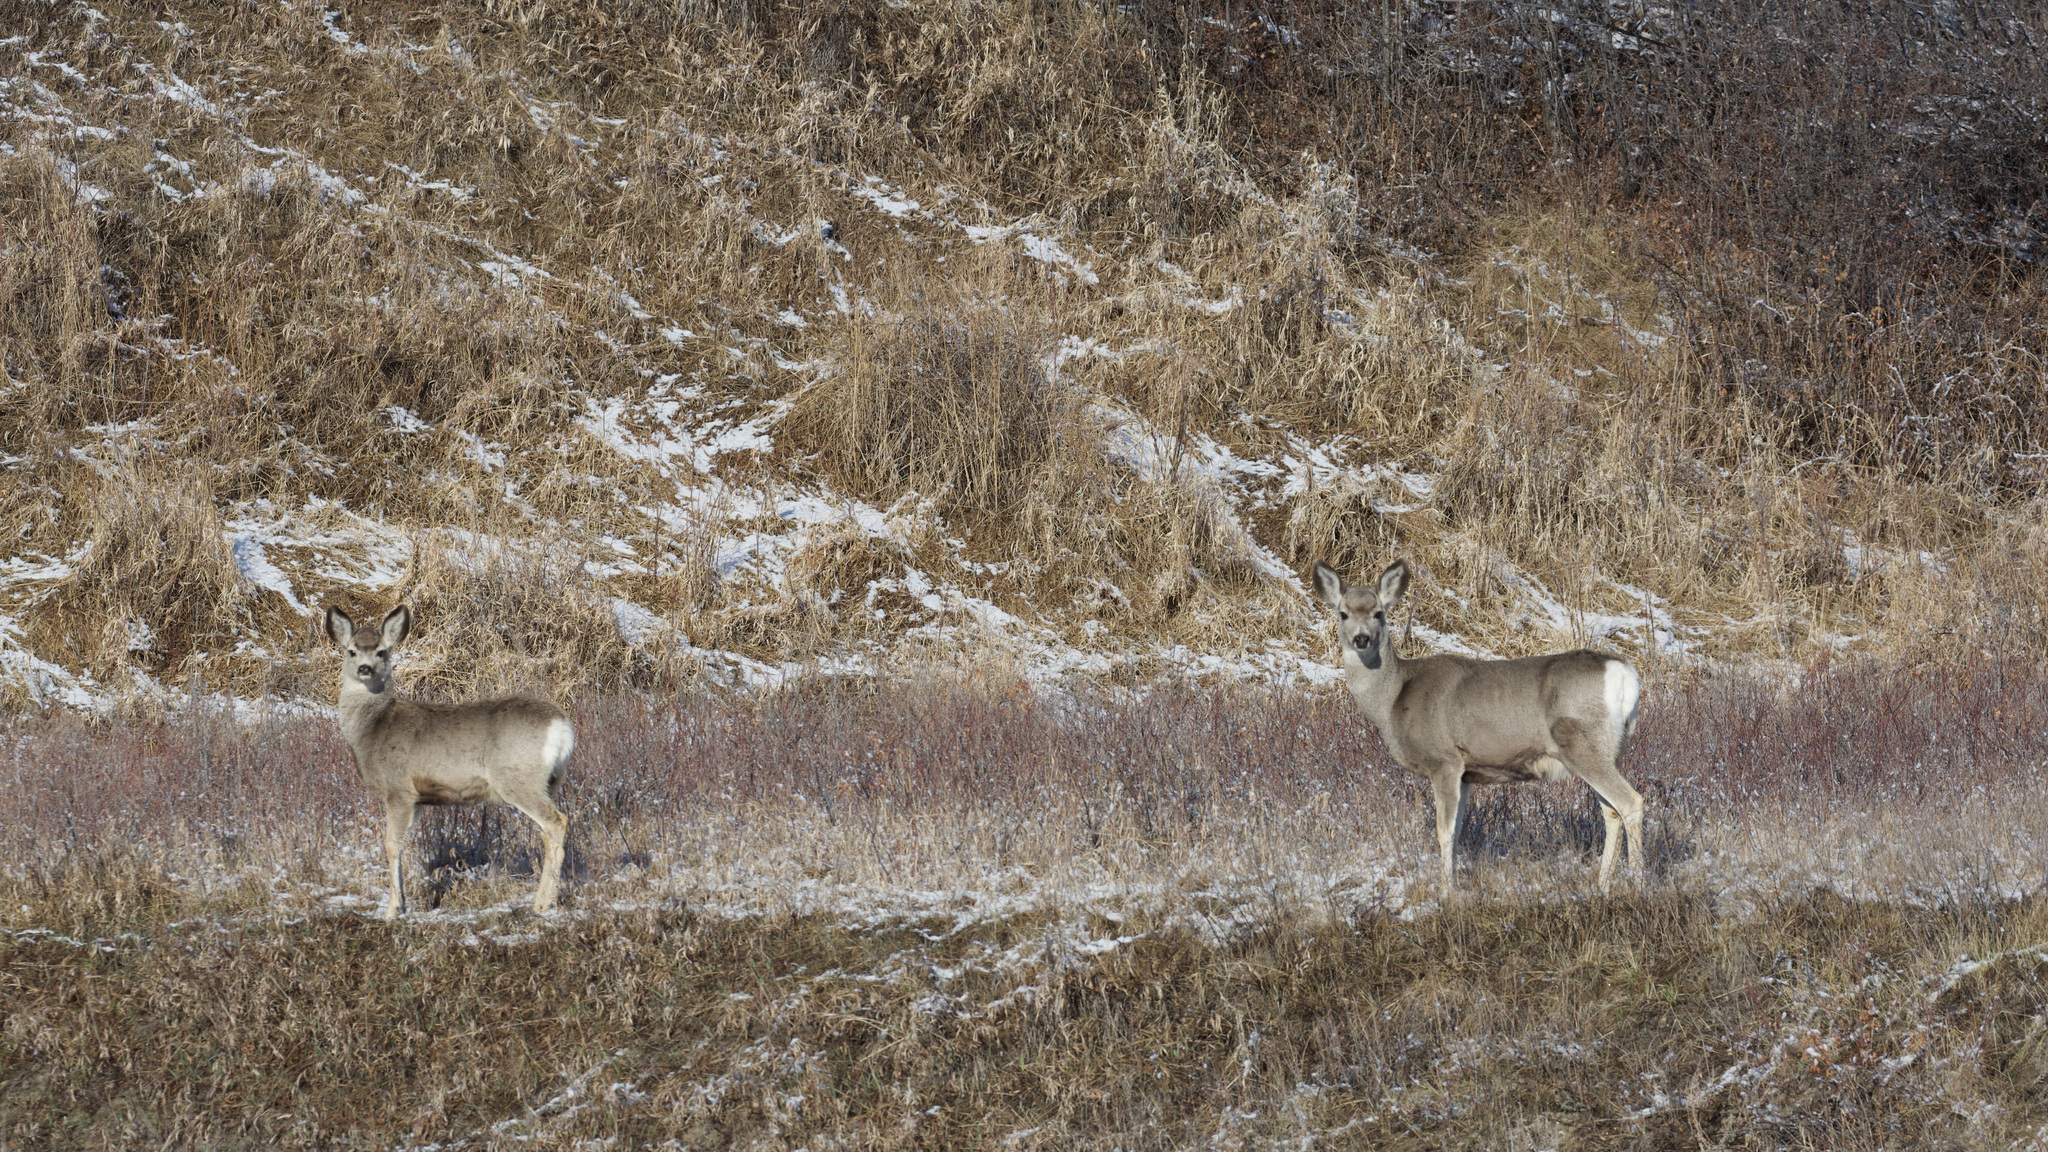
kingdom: Animalia
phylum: Chordata
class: Mammalia
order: Artiodactyla
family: Cervidae
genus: Odocoileus
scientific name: Odocoileus hemionus
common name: Mule deer
